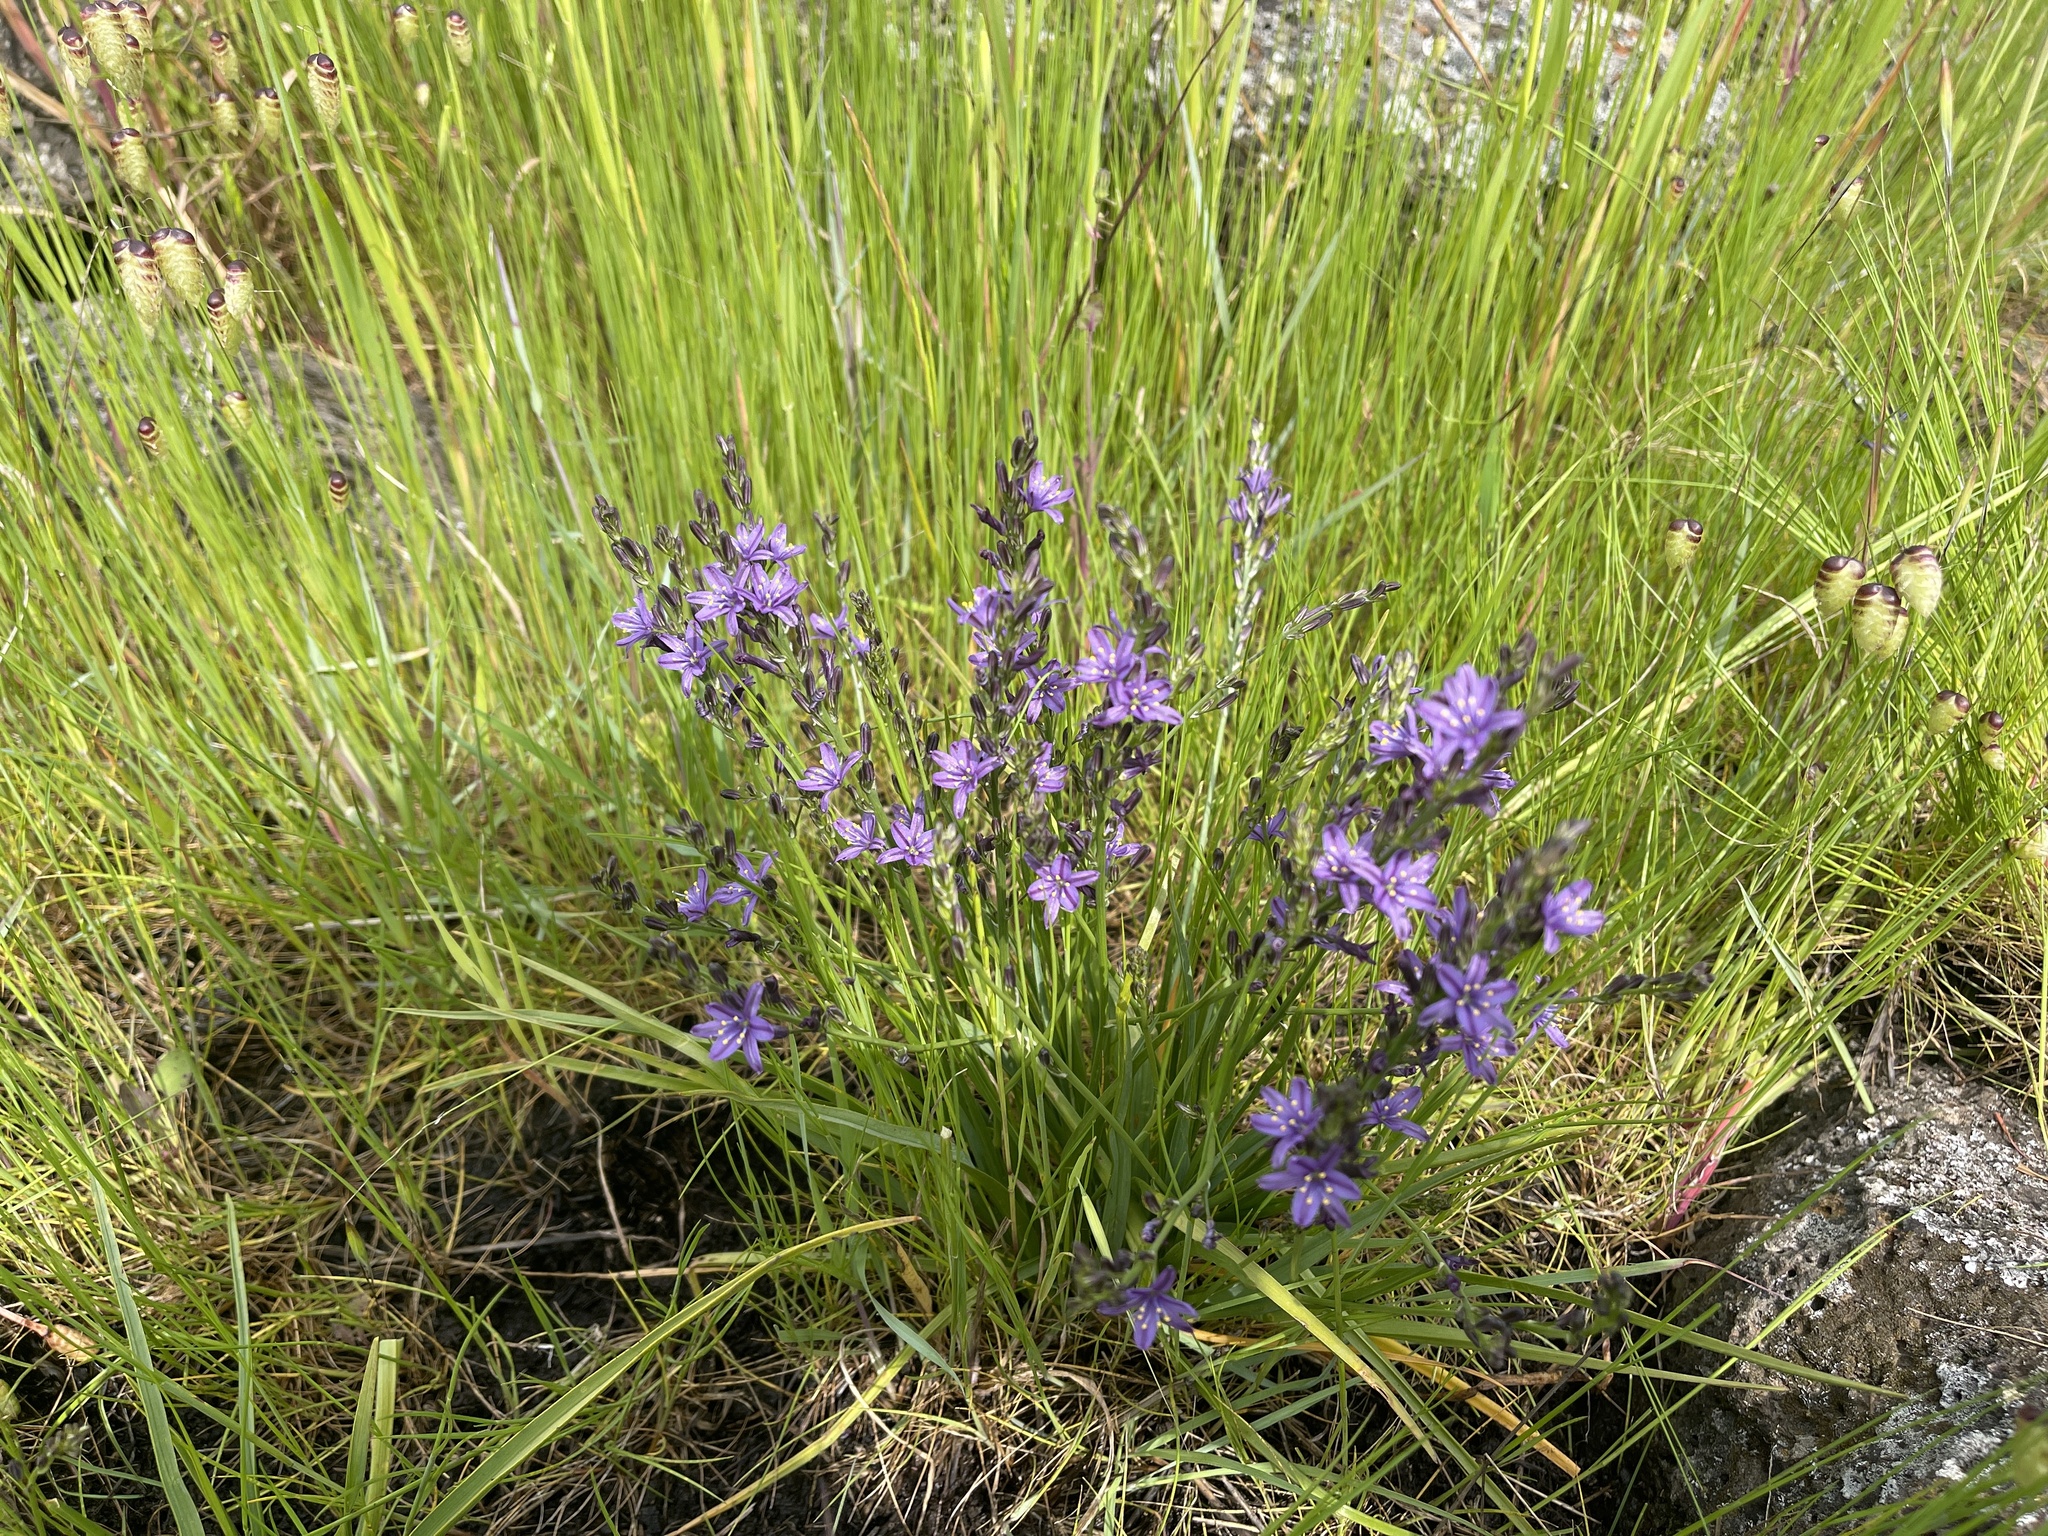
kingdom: Plantae
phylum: Tracheophyta
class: Liliopsida
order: Asparagales
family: Asphodelaceae
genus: Caesia
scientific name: Caesia calliantha
